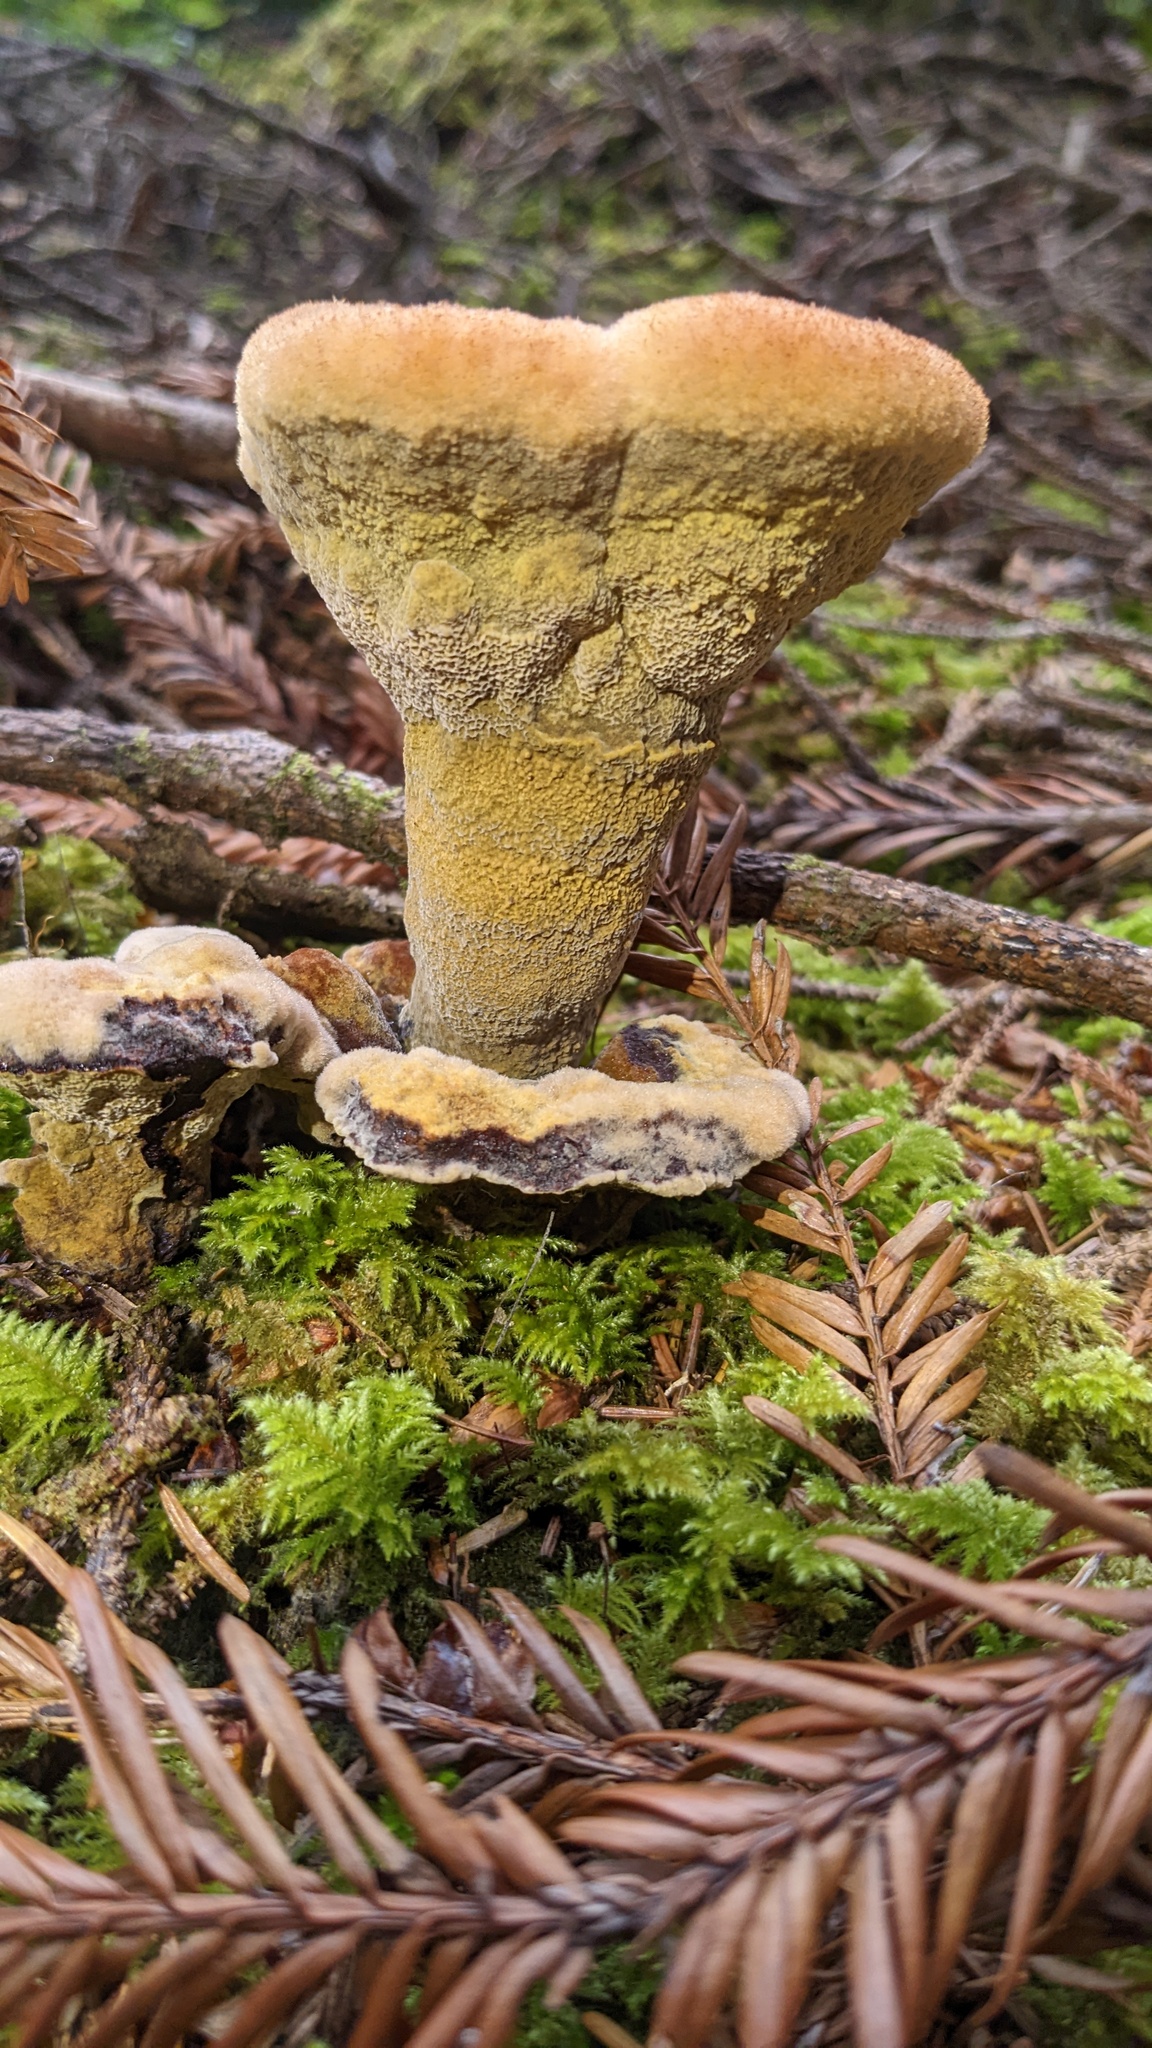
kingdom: Fungi
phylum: Basidiomycota
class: Agaricomycetes
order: Polyporales
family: Laetiporaceae
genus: Phaeolus
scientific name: Phaeolus schweinitzii
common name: Dyer's mazegill
